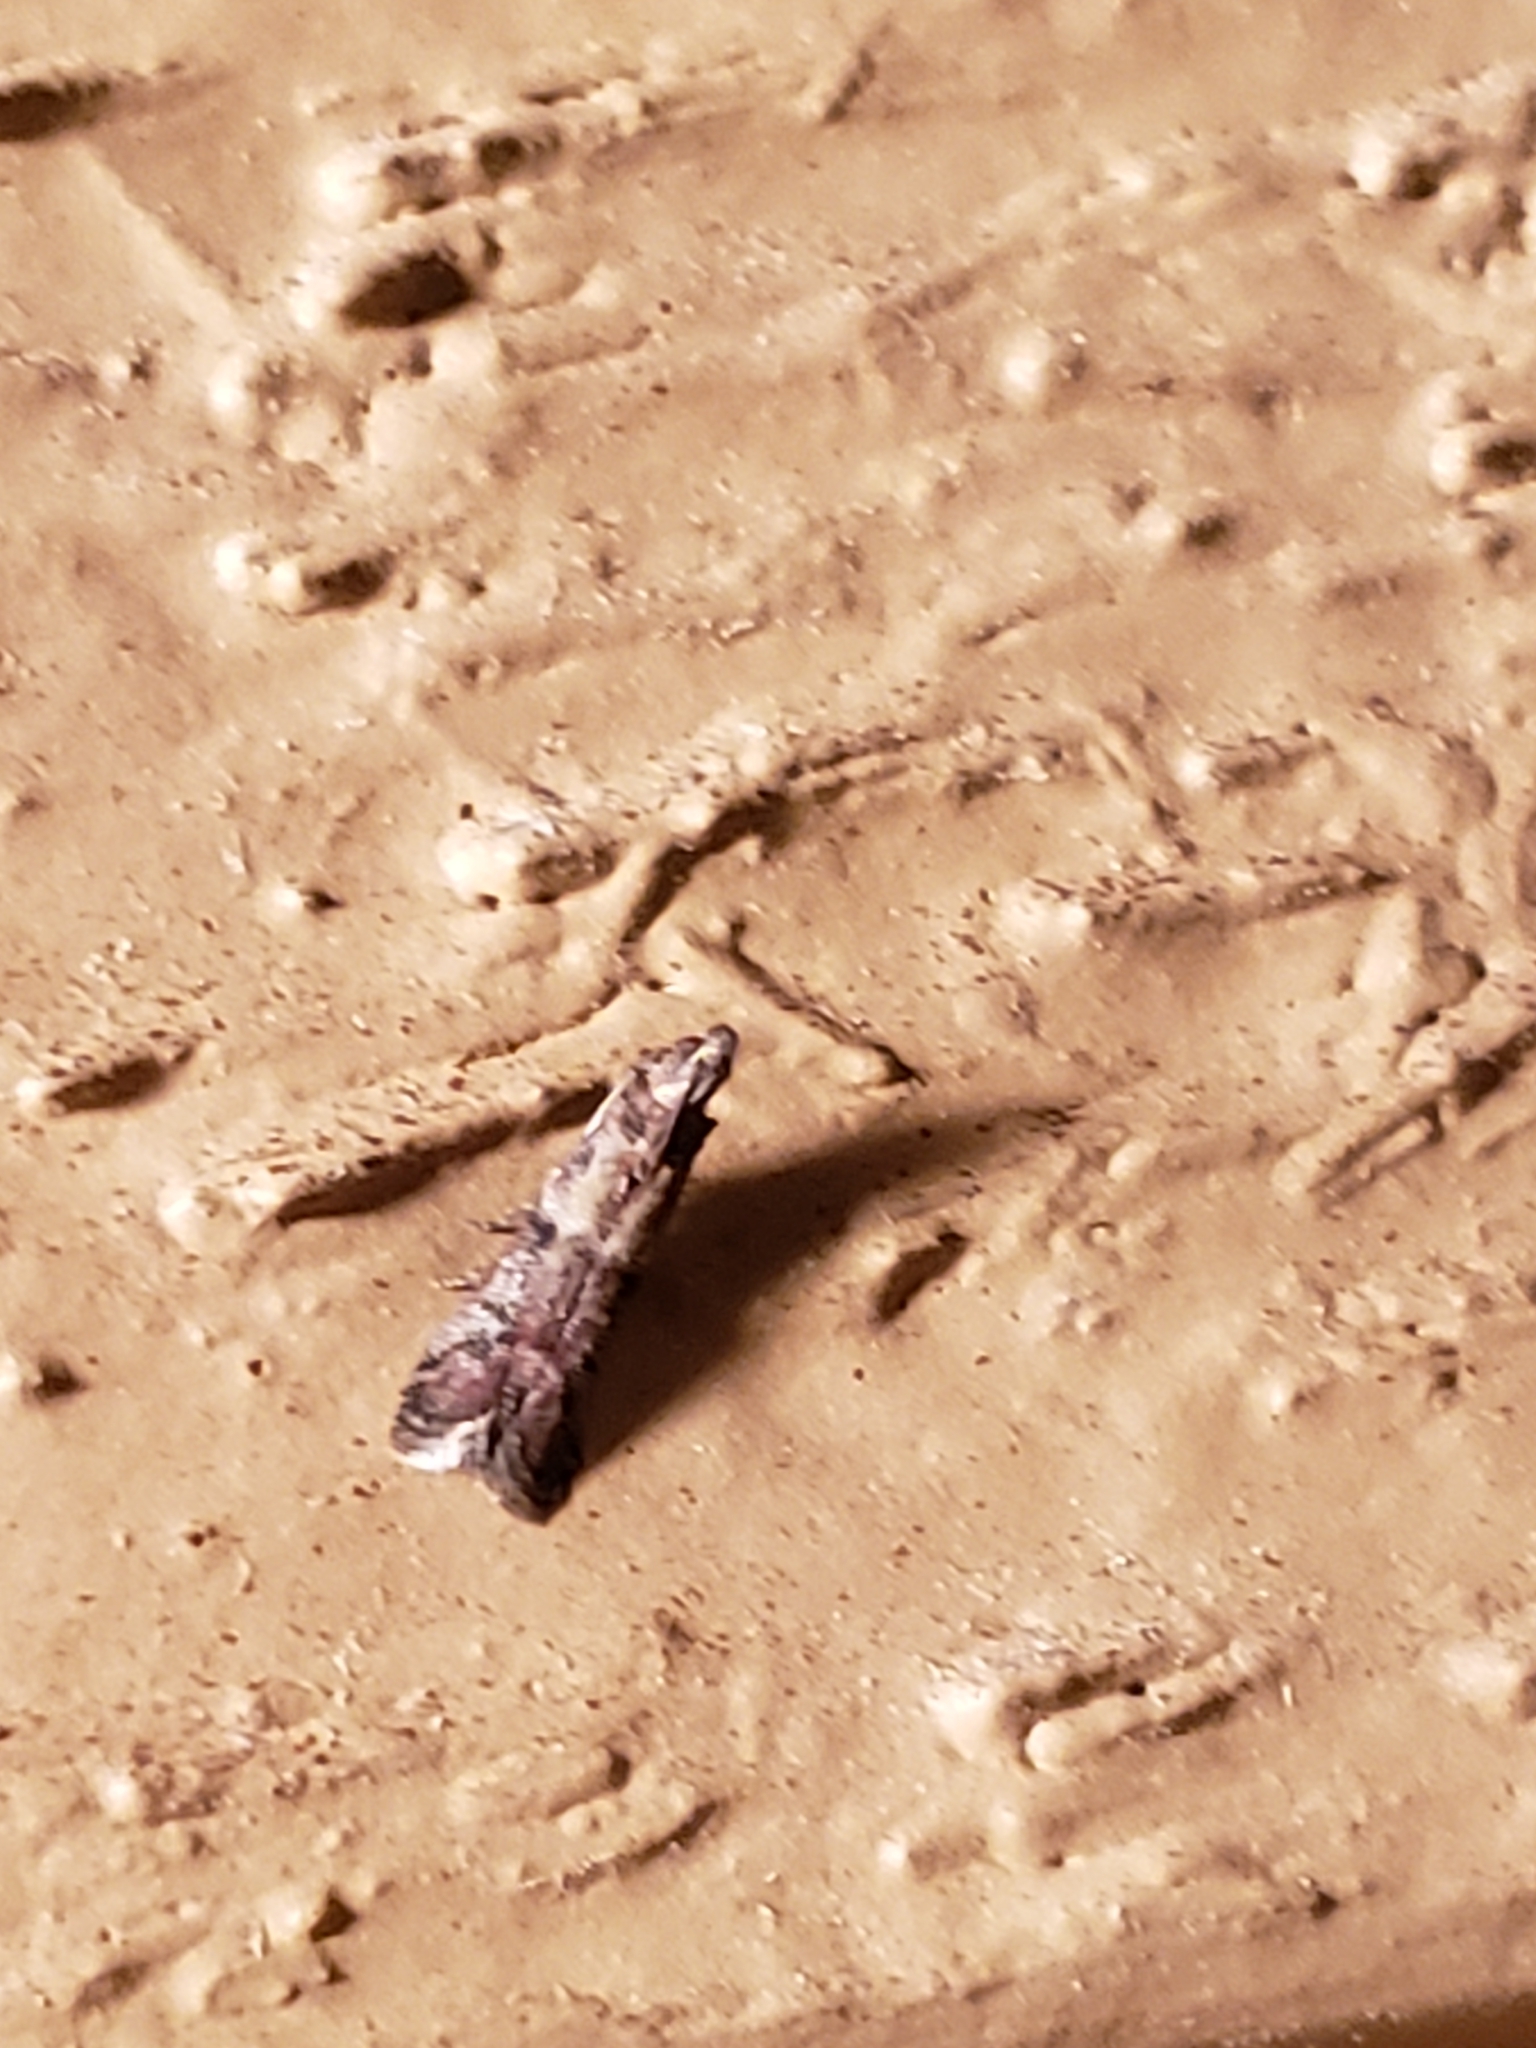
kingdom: Animalia
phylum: Arthropoda
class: Insecta
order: Lepidoptera
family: Pyralidae
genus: Ephestiodes
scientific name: Ephestiodes infimella
